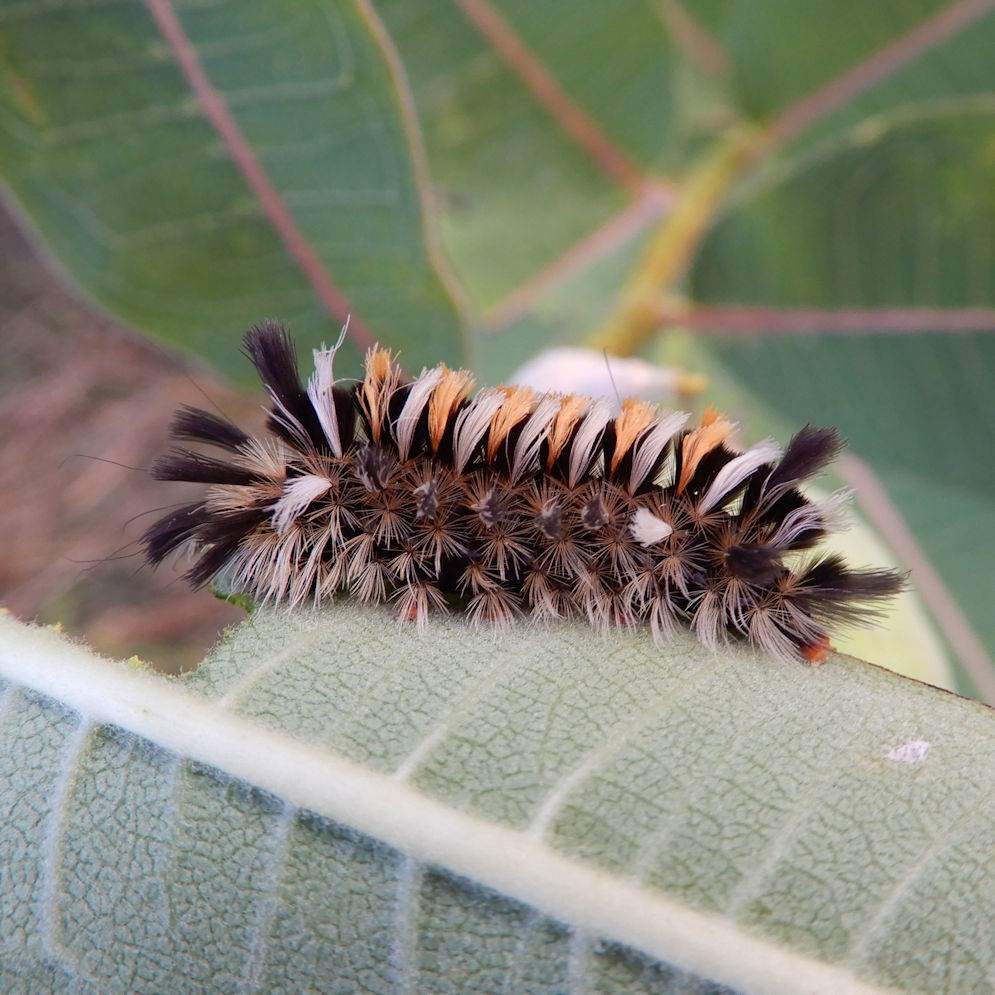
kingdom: Animalia
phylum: Arthropoda
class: Insecta
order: Lepidoptera
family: Erebidae
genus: Euchaetes
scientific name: Euchaetes egle
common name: Milkweed tussock moth
